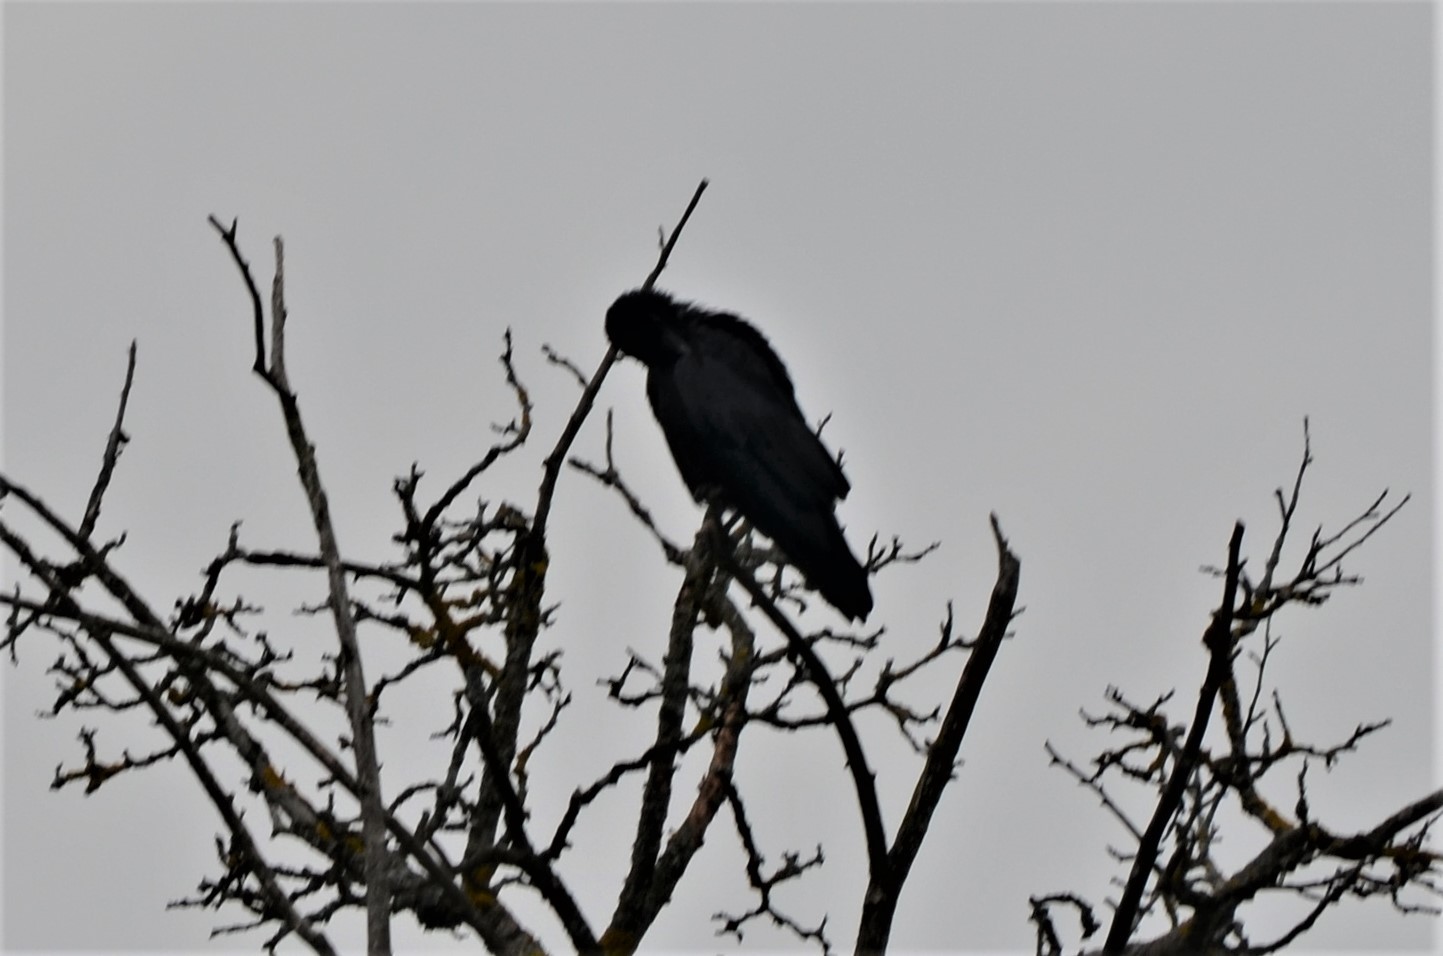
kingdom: Animalia
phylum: Chordata
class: Aves
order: Passeriformes
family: Corvidae
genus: Corvus
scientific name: Corvus
